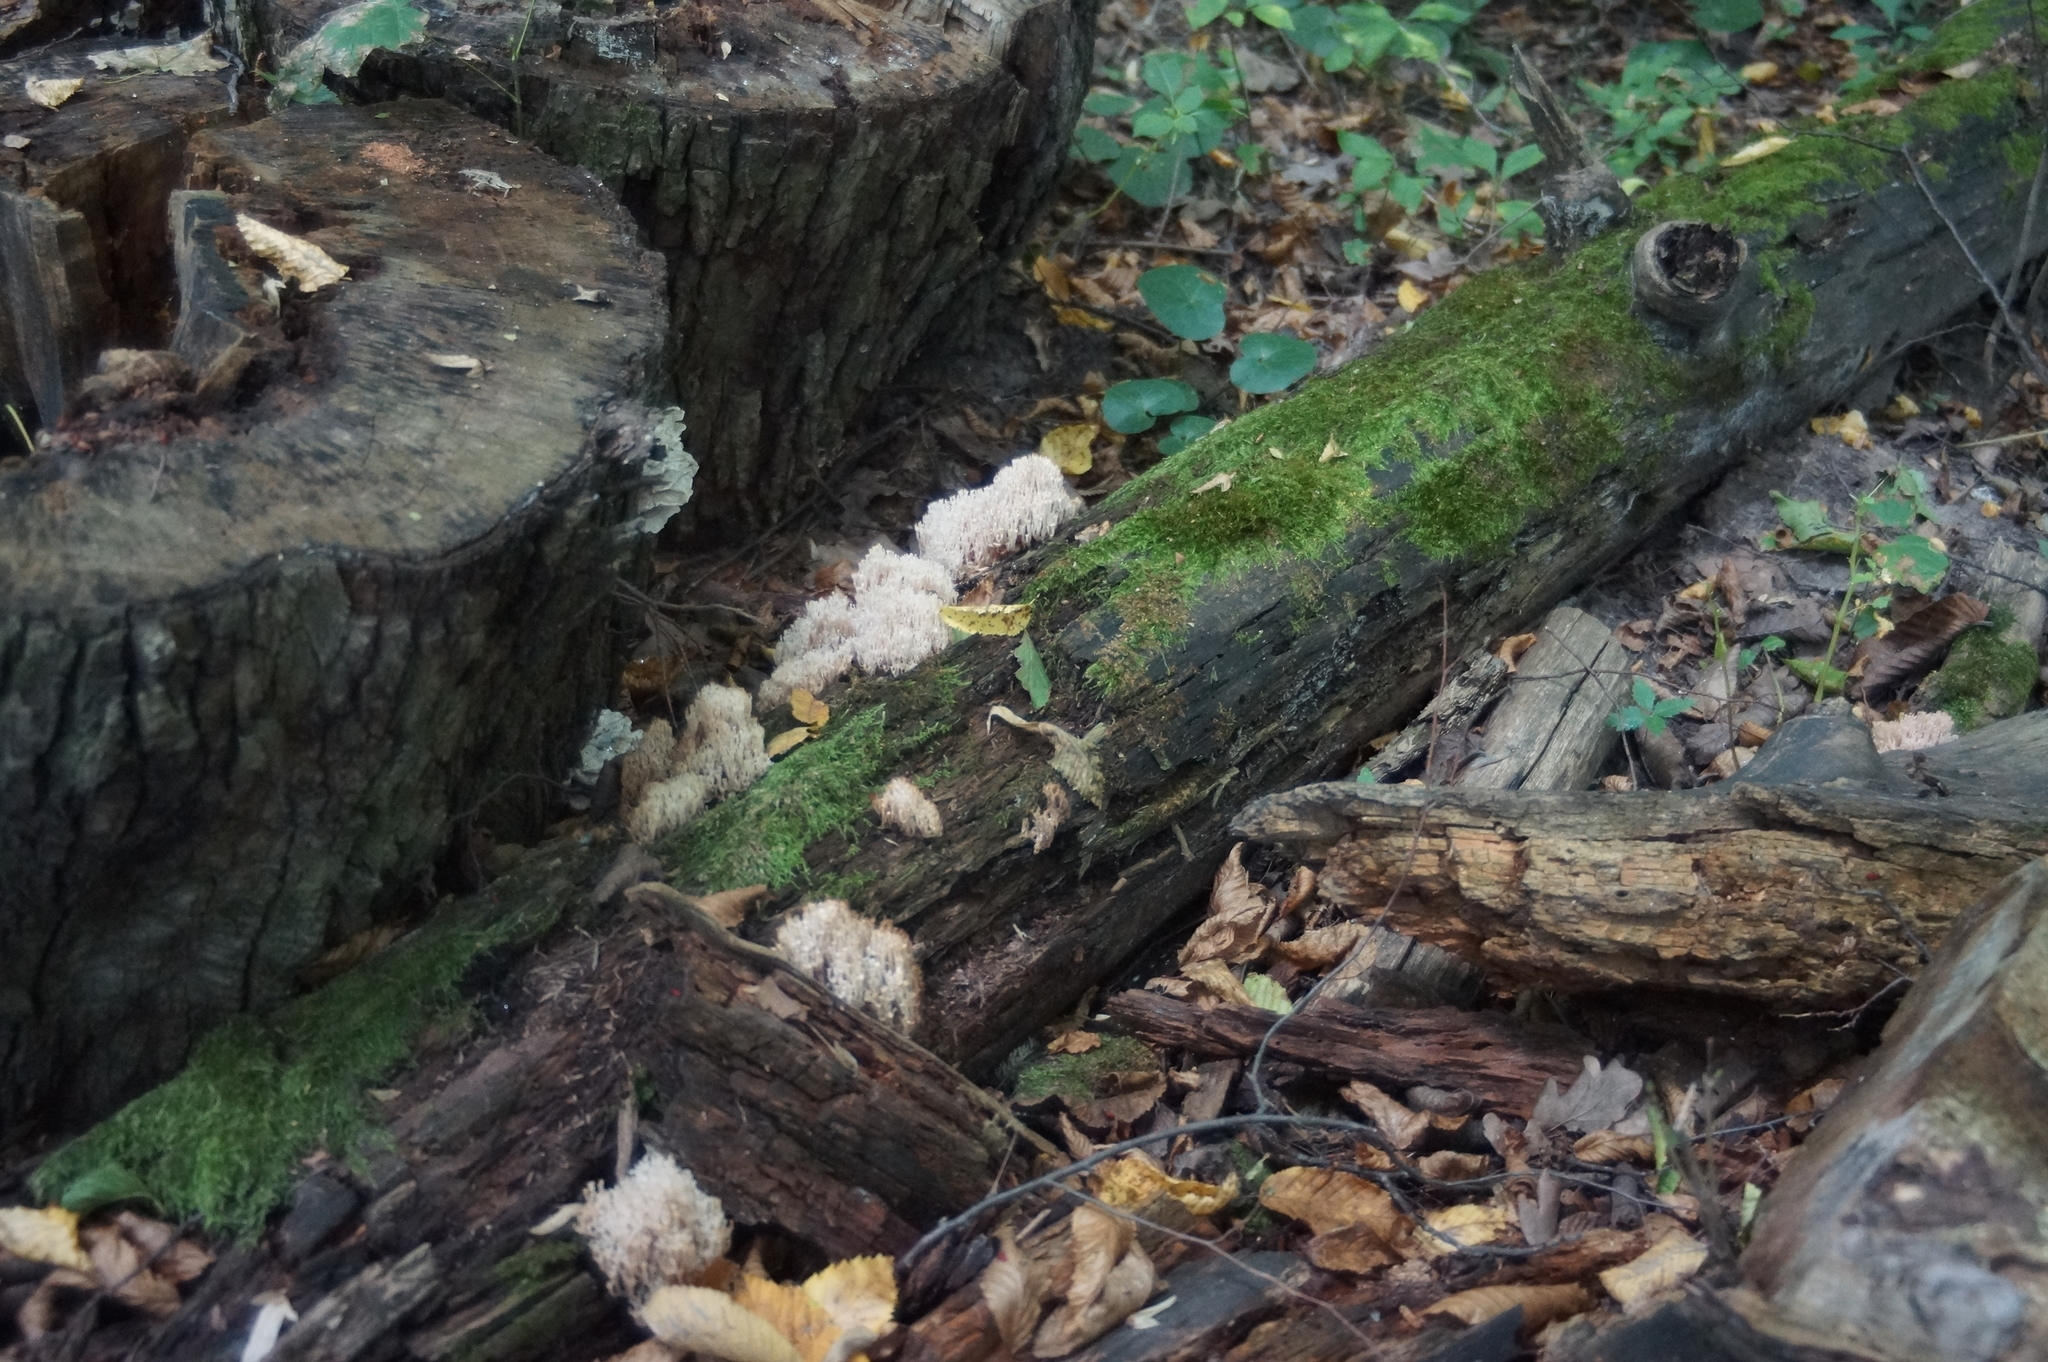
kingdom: Fungi
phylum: Basidiomycota
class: Agaricomycetes
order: Russulales
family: Auriscalpiaceae
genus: Artomyces
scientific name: Artomyces pyxidatus
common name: Crown-tipped coral fungus
